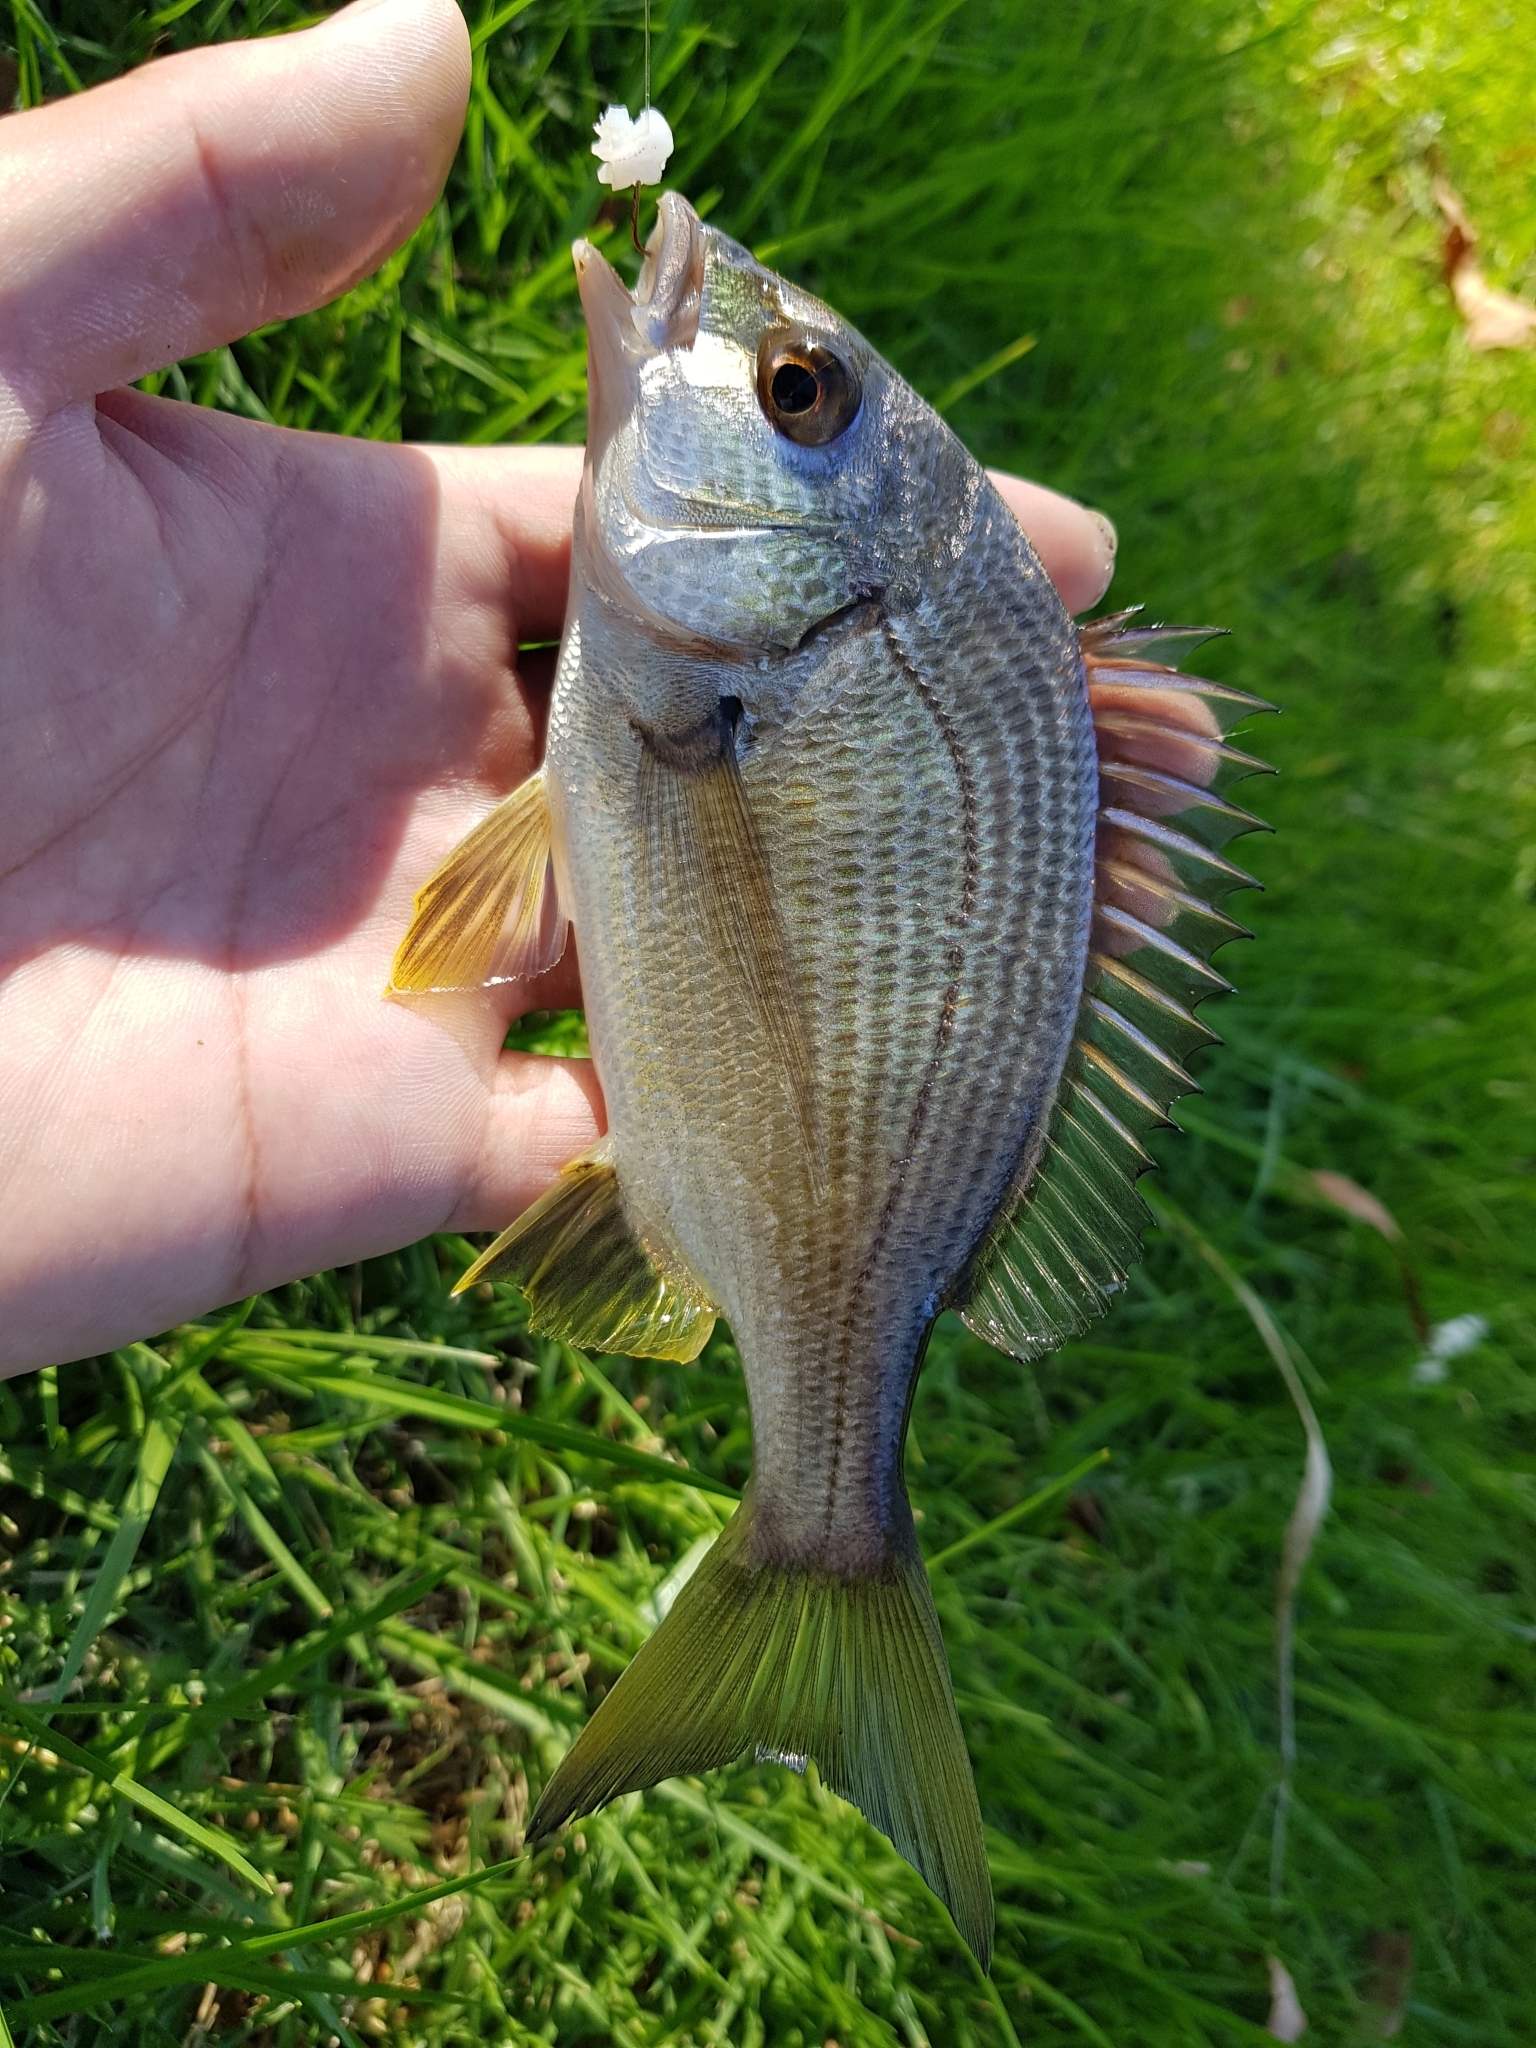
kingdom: Animalia
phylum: Chordata
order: Perciformes
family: Sparidae
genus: Acanthopagrus
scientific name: Acanthopagrus butcheri
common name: Black bream
